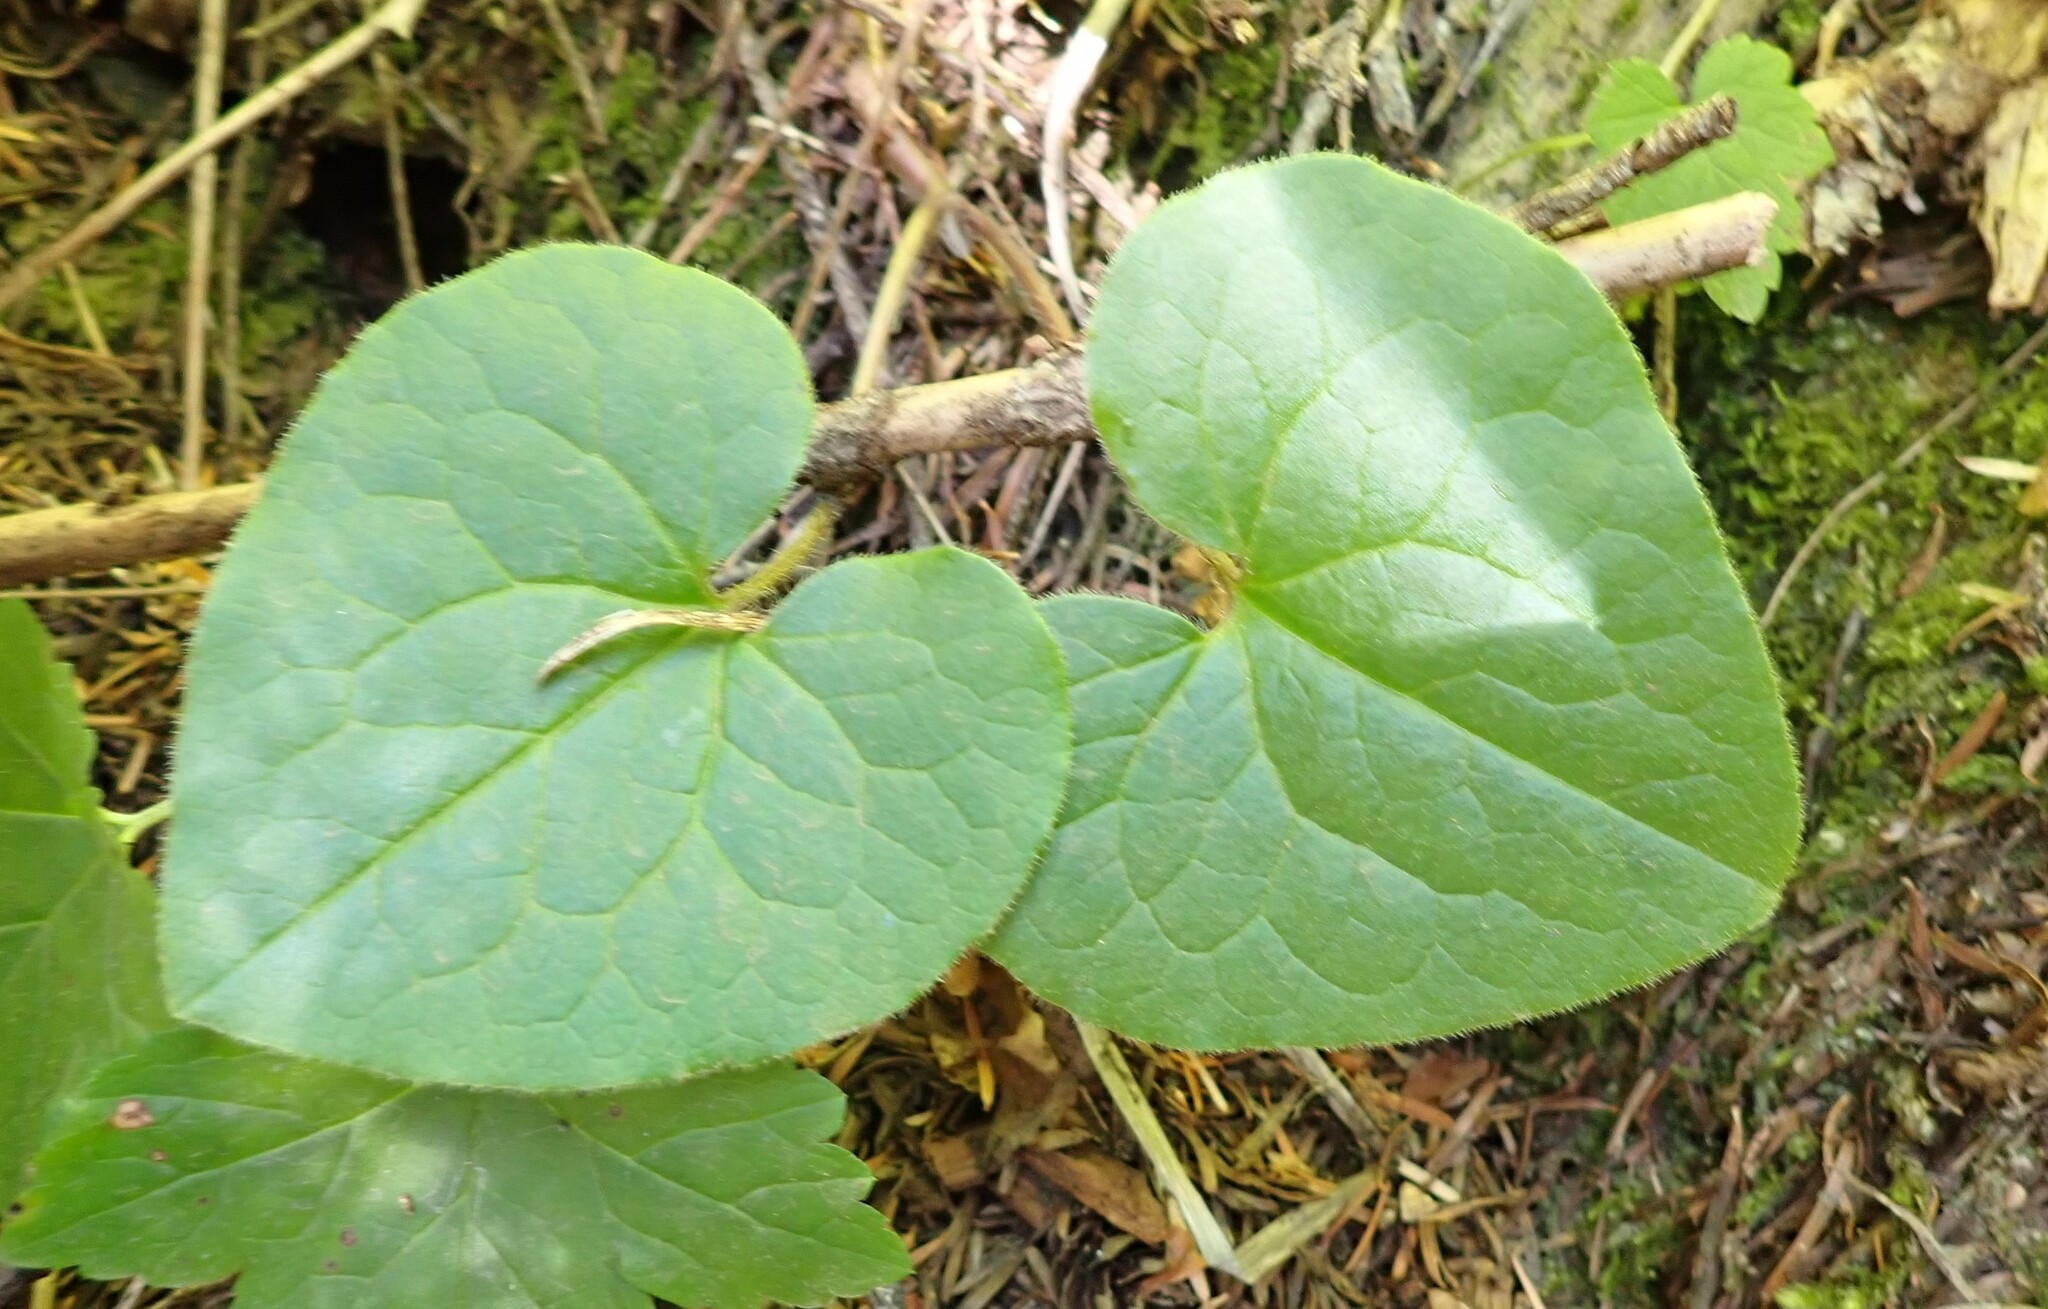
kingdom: Plantae
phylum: Tracheophyta
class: Magnoliopsida
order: Piperales
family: Aristolochiaceae
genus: Asarum
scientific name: Asarum caudatum
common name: Wild ginger
